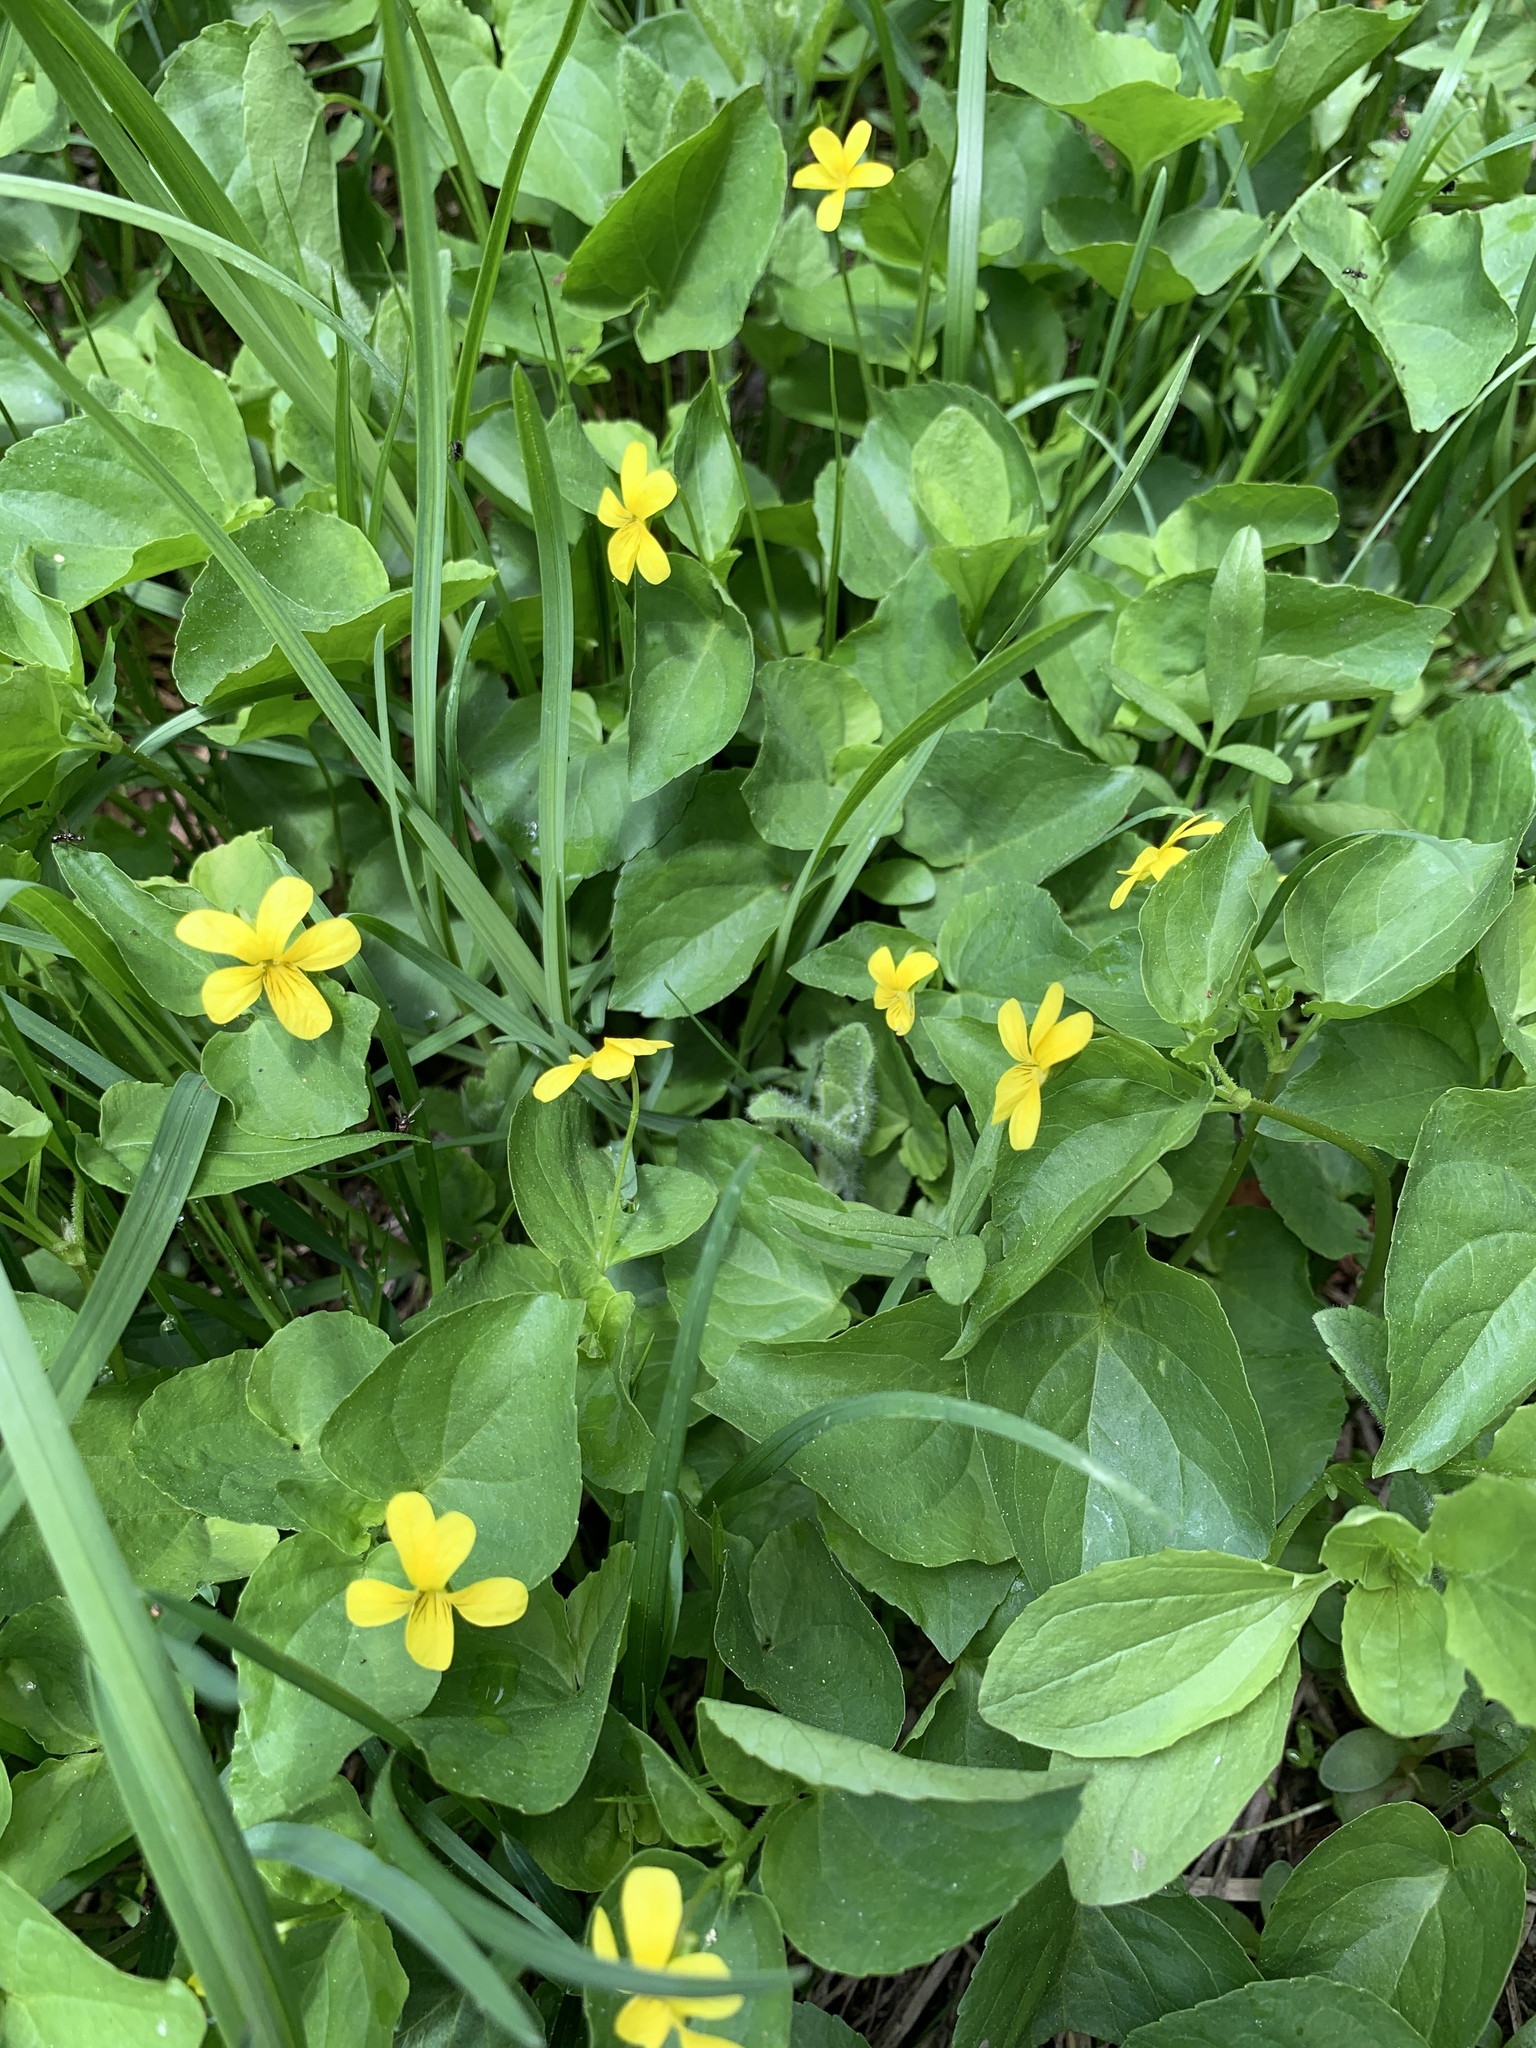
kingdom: Plantae
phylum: Tracheophyta
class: Magnoliopsida
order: Malpighiales
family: Violaceae
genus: Viola
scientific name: Viola glabella
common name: Stream violet
